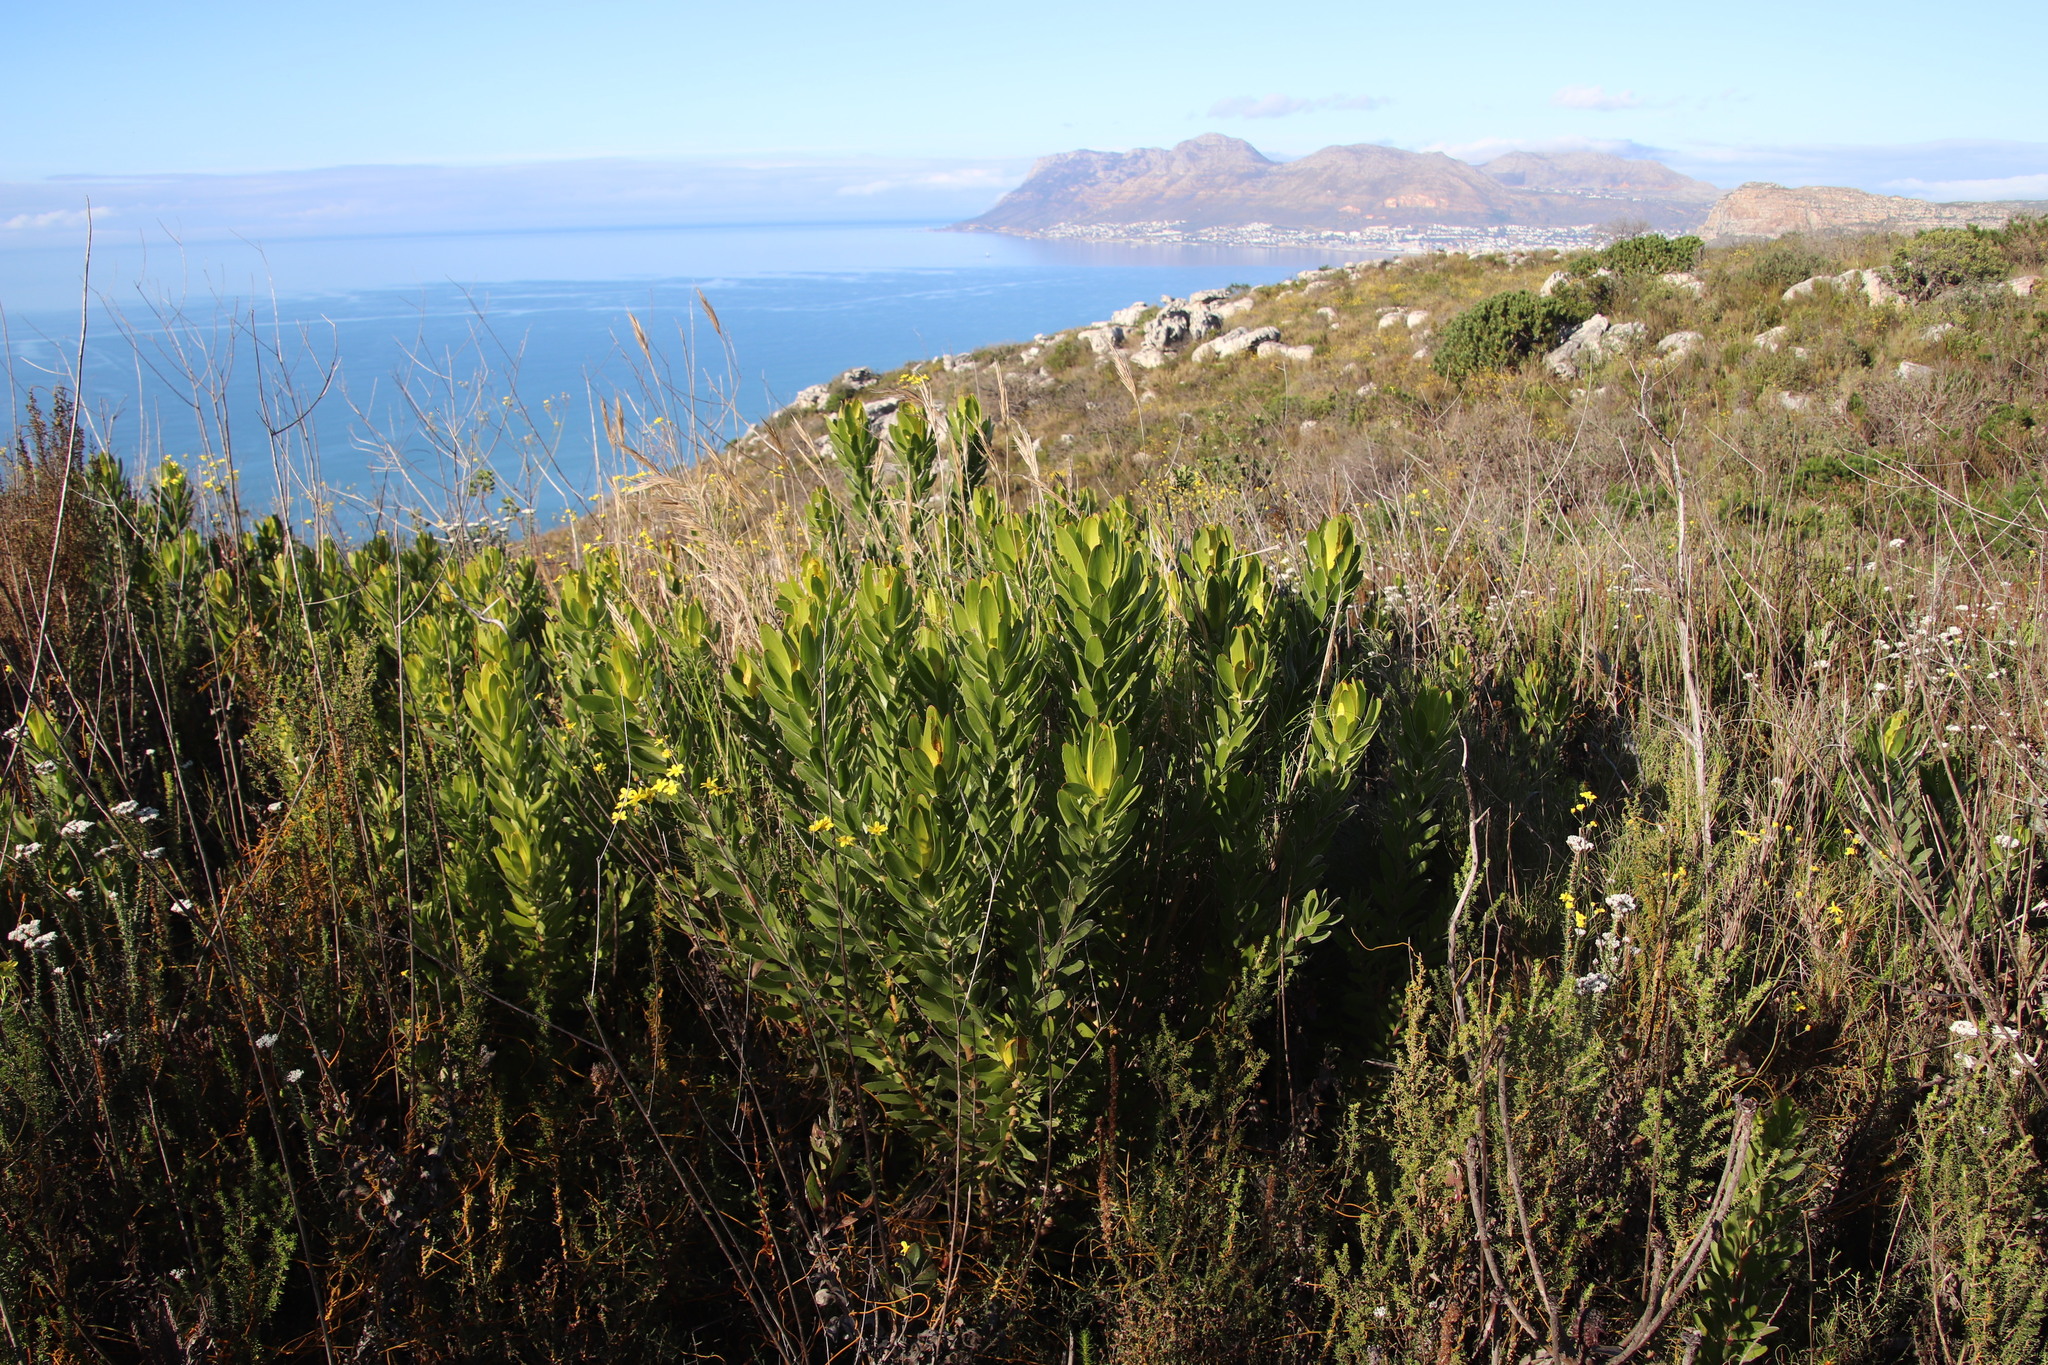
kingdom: Plantae
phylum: Tracheophyta
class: Magnoliopsida
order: Proteales
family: Proteaceae
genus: Leucadendron
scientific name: Leucadendron laureolum
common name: Golden sunshinebush
